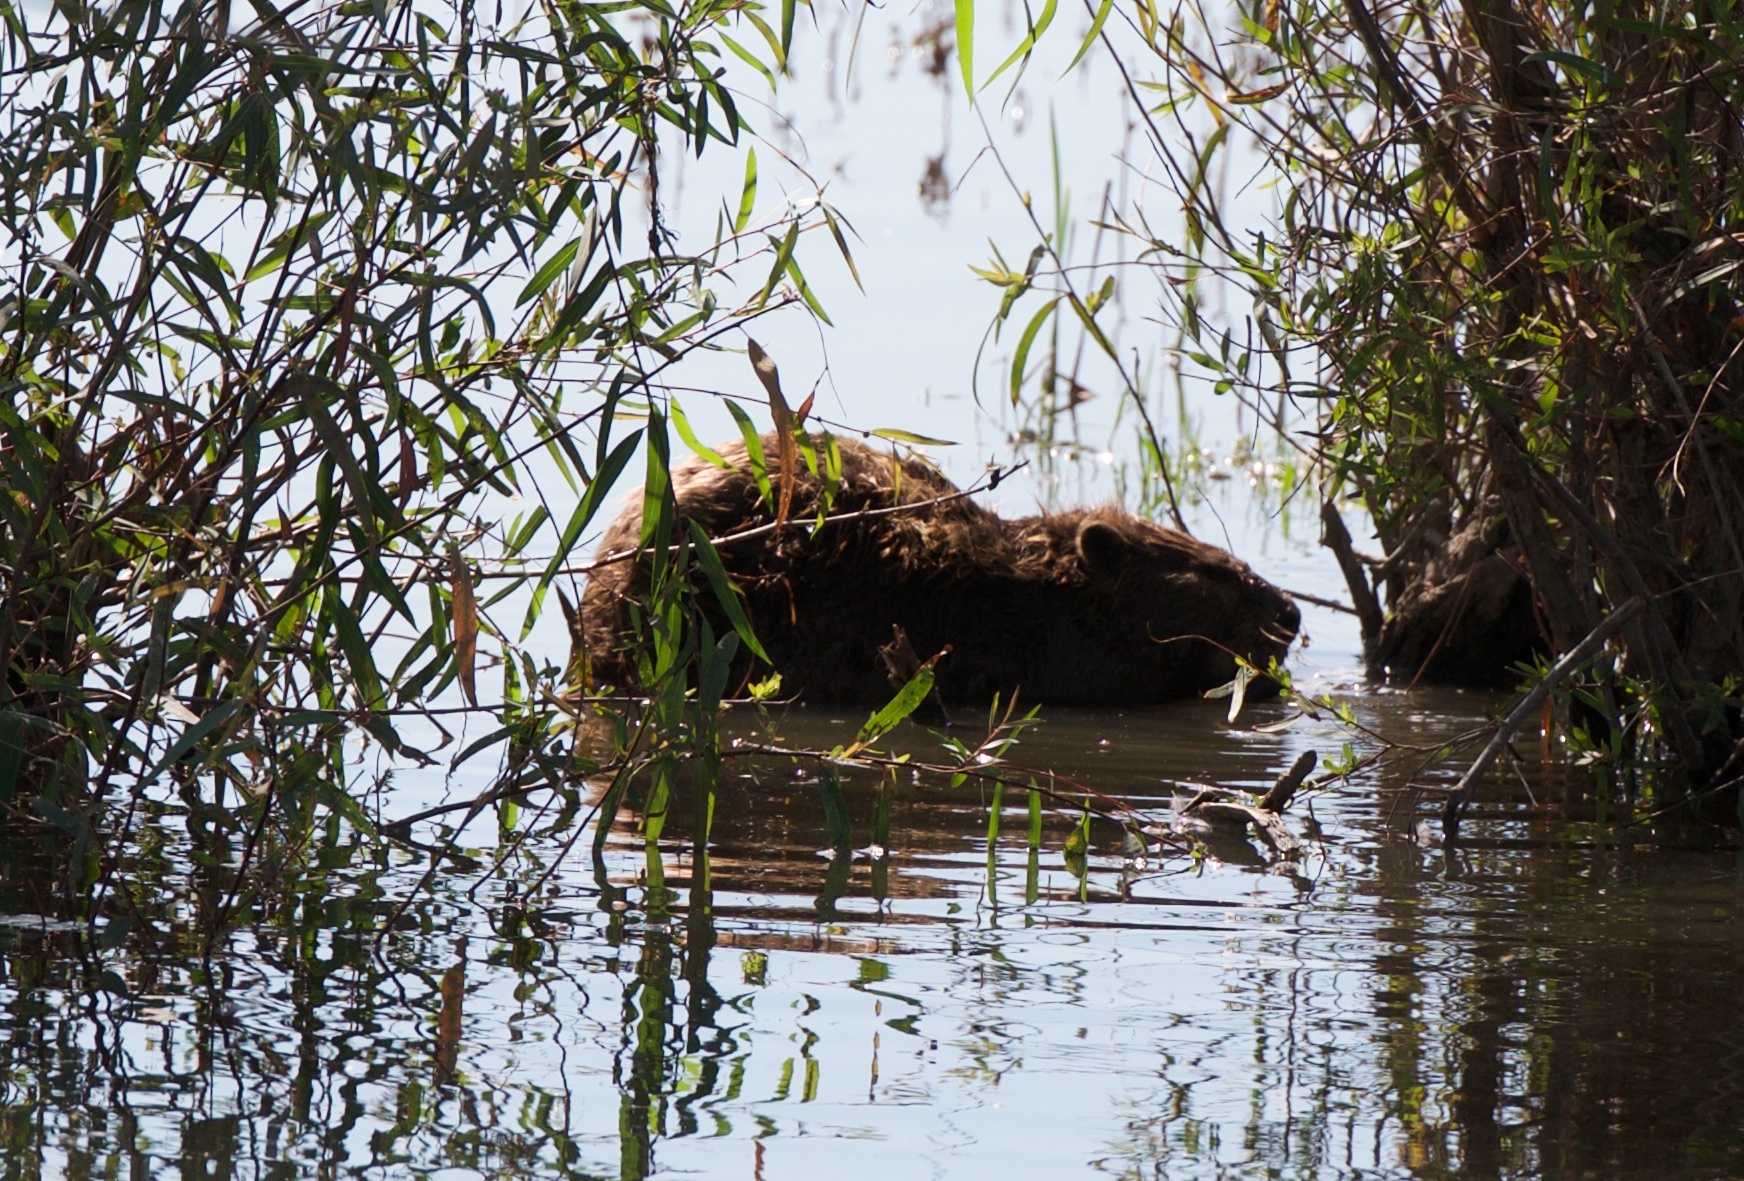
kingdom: Animalia
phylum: Chordata
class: Mammalia
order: Rodentia
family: Castoridae
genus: Castor
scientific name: Castor canadensis
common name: American beaver
